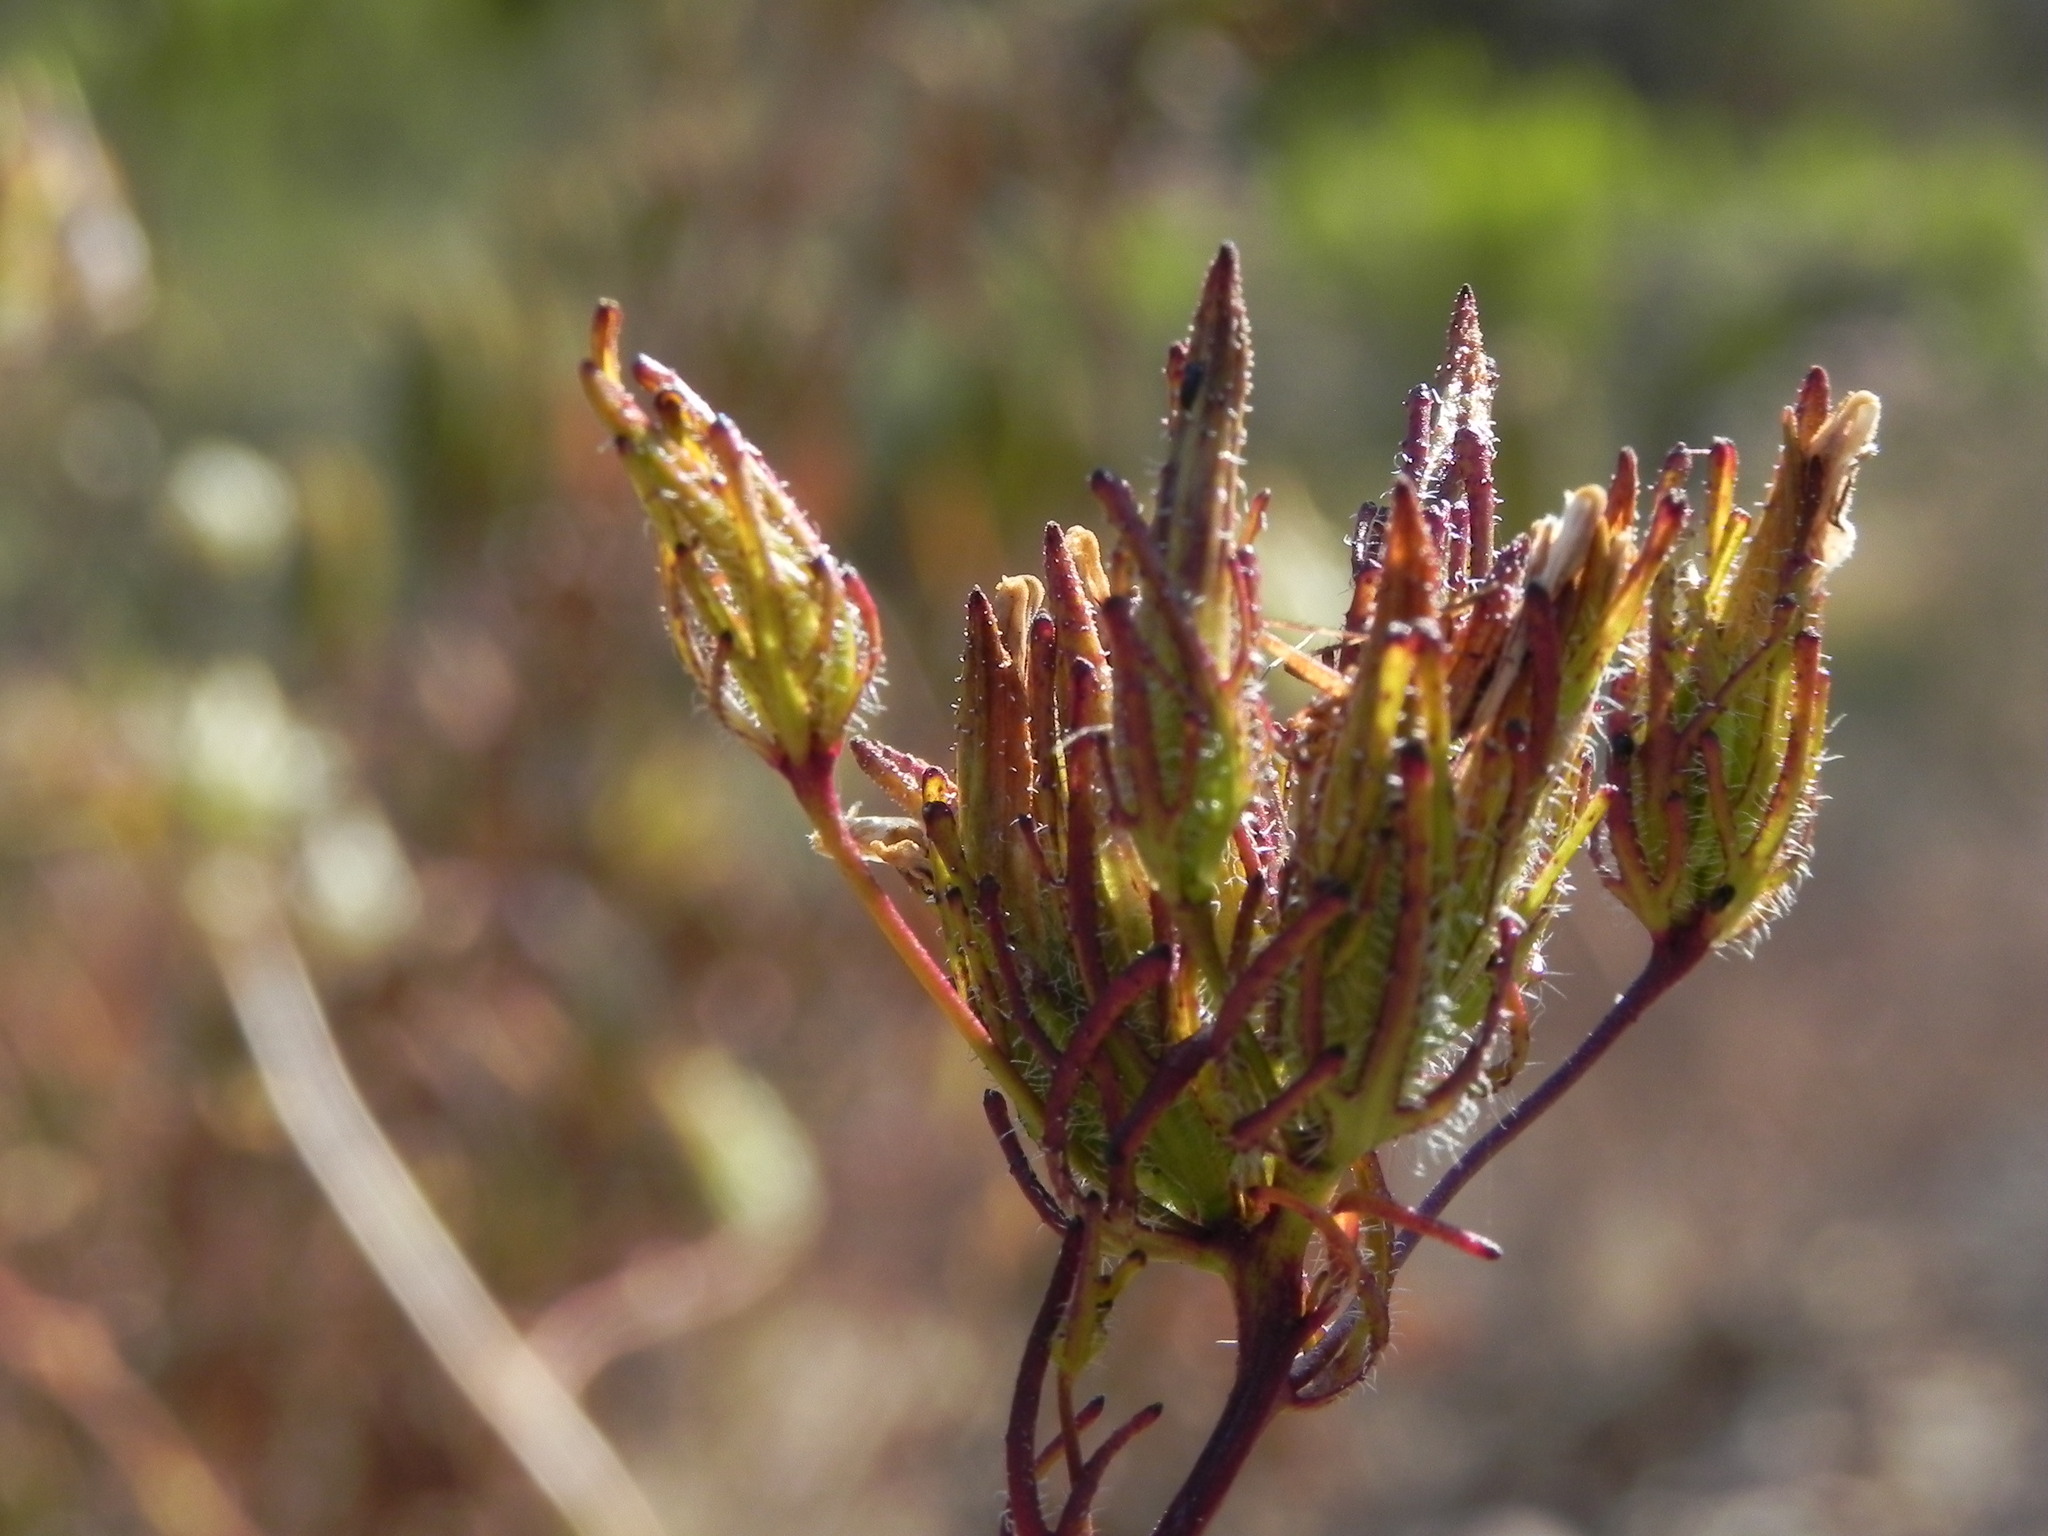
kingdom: Plantae
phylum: Tracheophyta
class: Magnoliopsida
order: Lamiales
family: Orobanchaceae
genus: Cordylanthus
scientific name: Cordylanthus rigidus
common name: Stiff-branch bird's-beak
